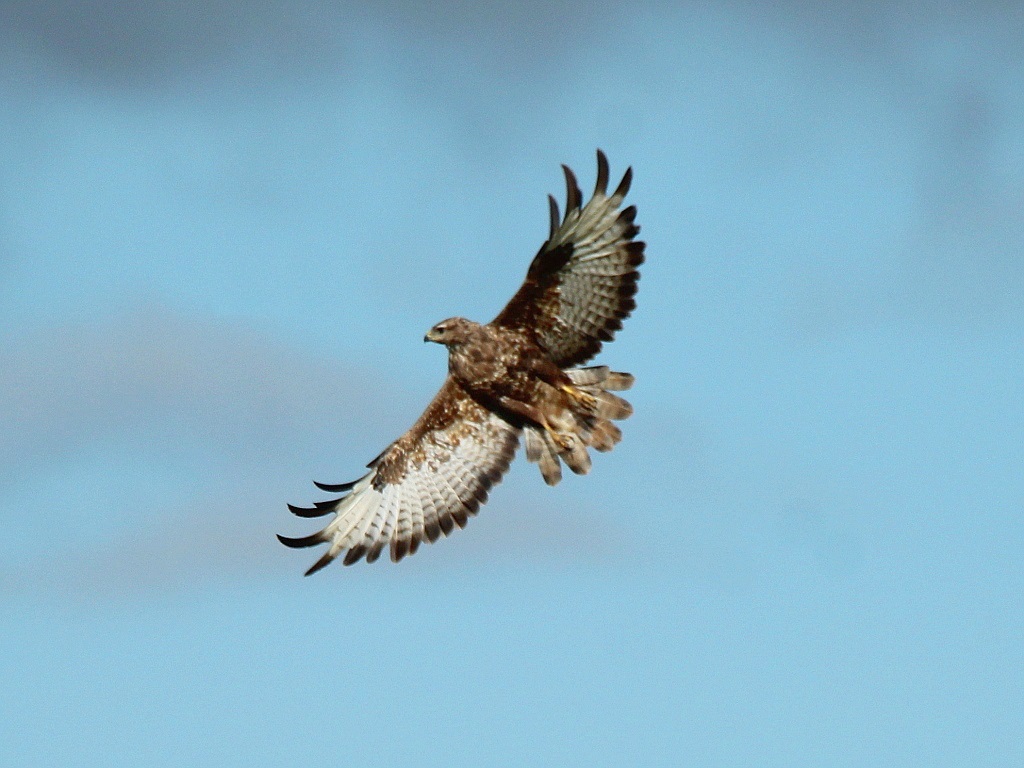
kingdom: Animalia
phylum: Chordata
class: Aves
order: Accipitriformes
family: Accipitridae
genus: Buteo
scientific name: Buteo buteo
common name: Common buzzard
